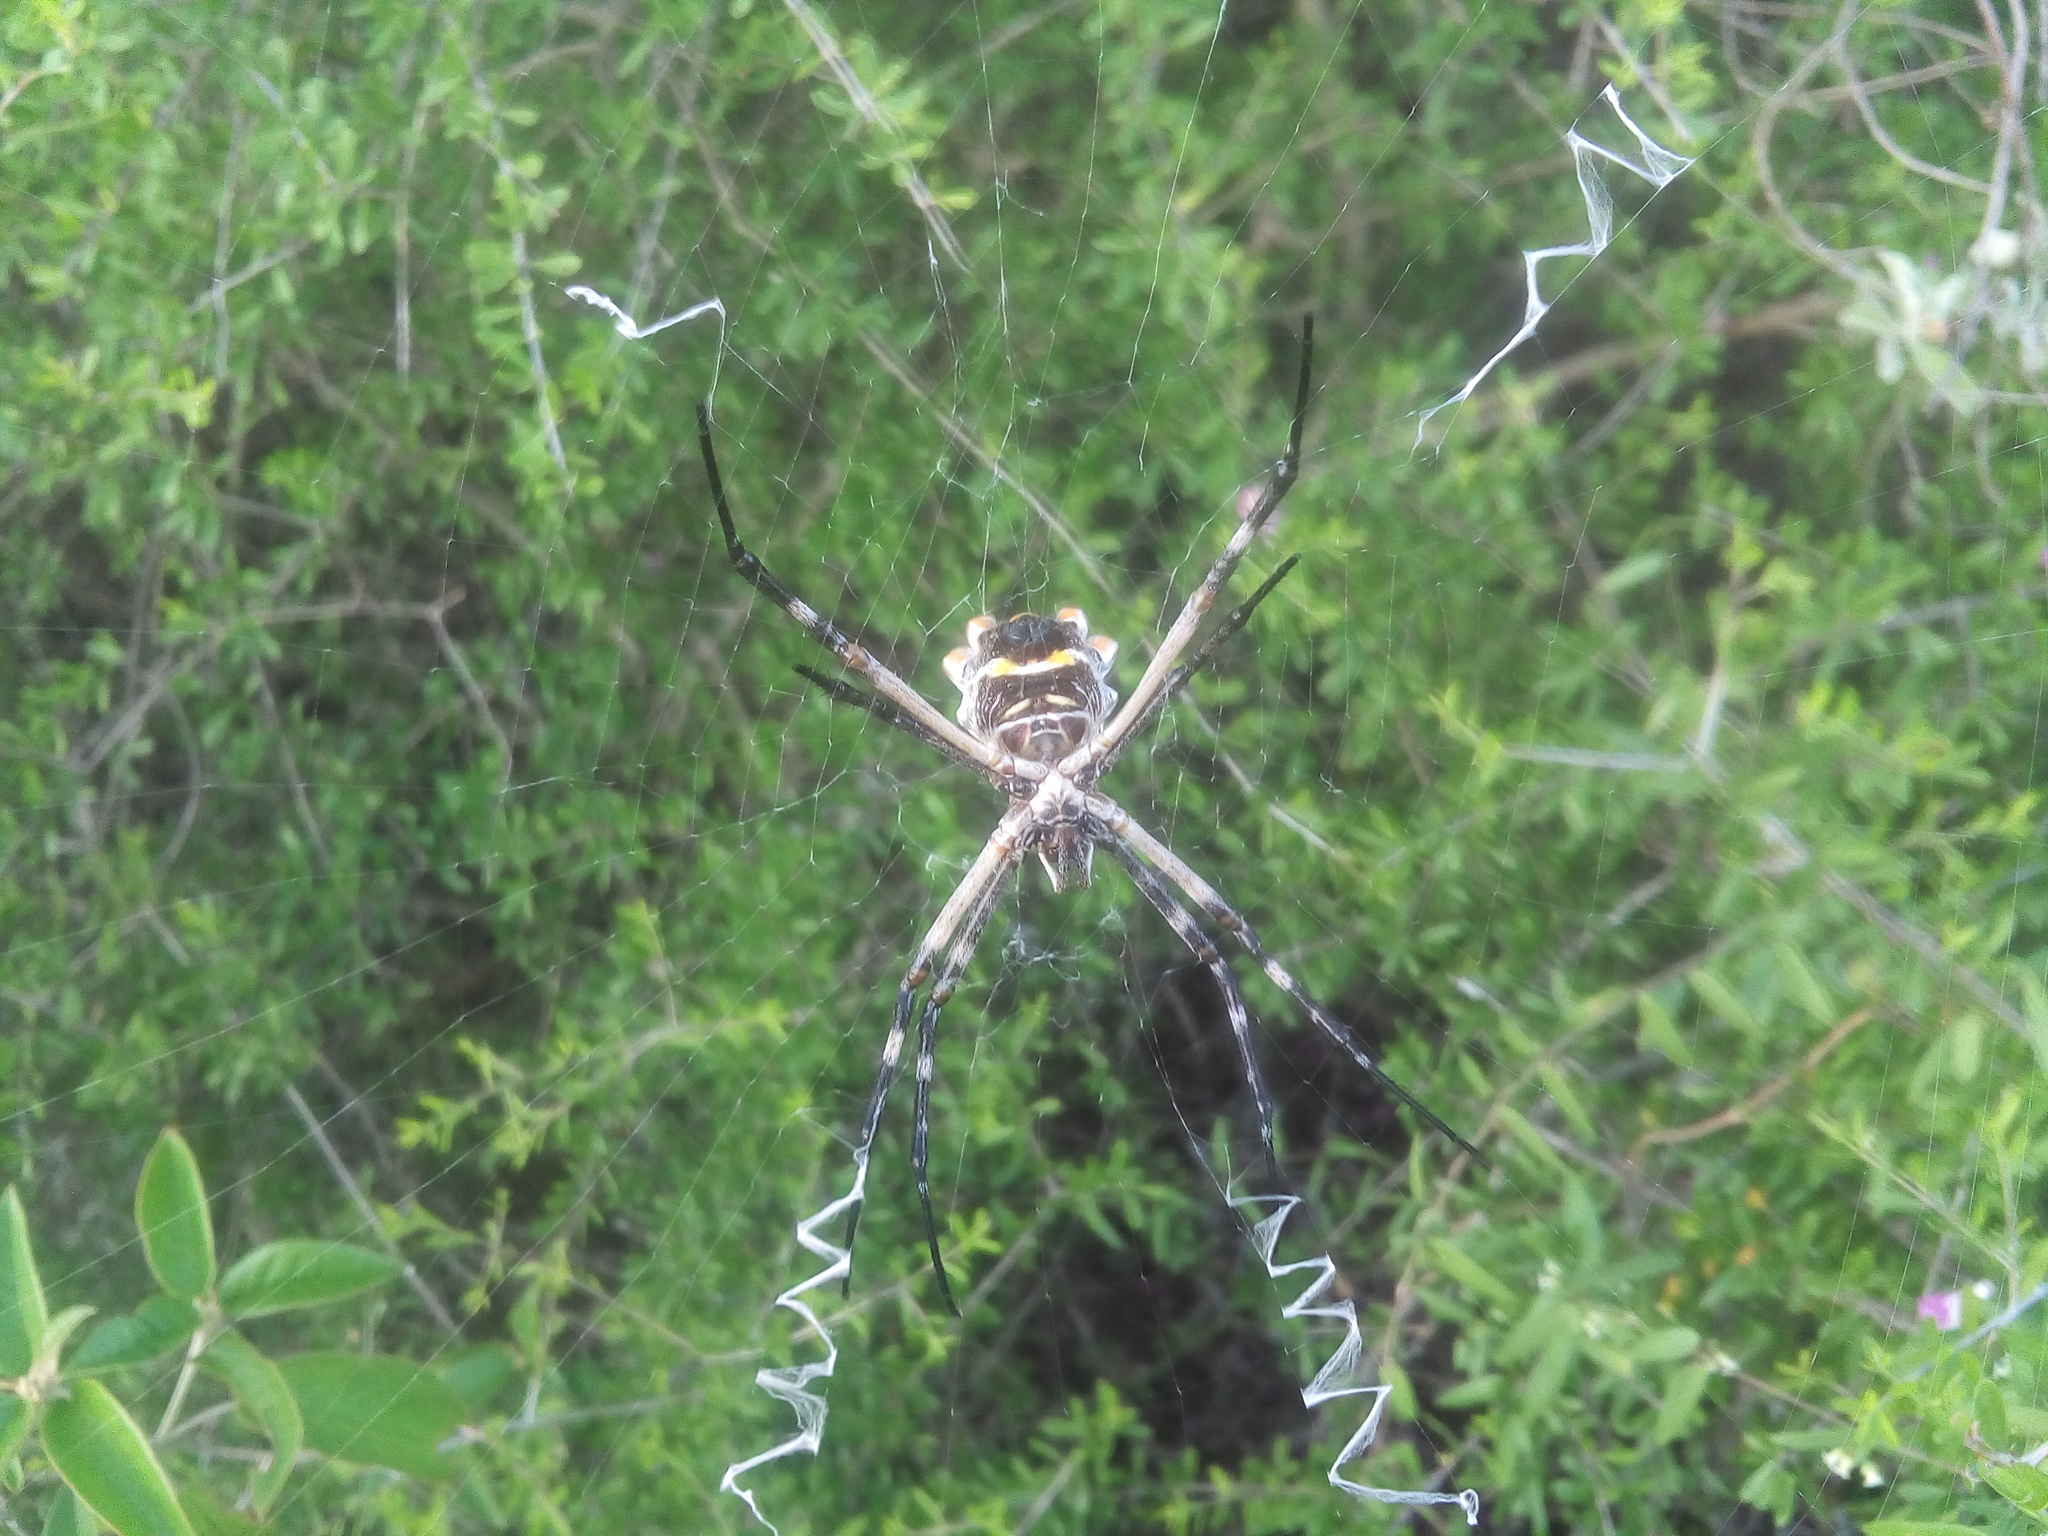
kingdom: Animalia
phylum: Arthropoda
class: Arachnida
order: Araneae
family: Araneidae
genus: Argiope
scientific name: Argiope argentata
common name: Orb weavers
